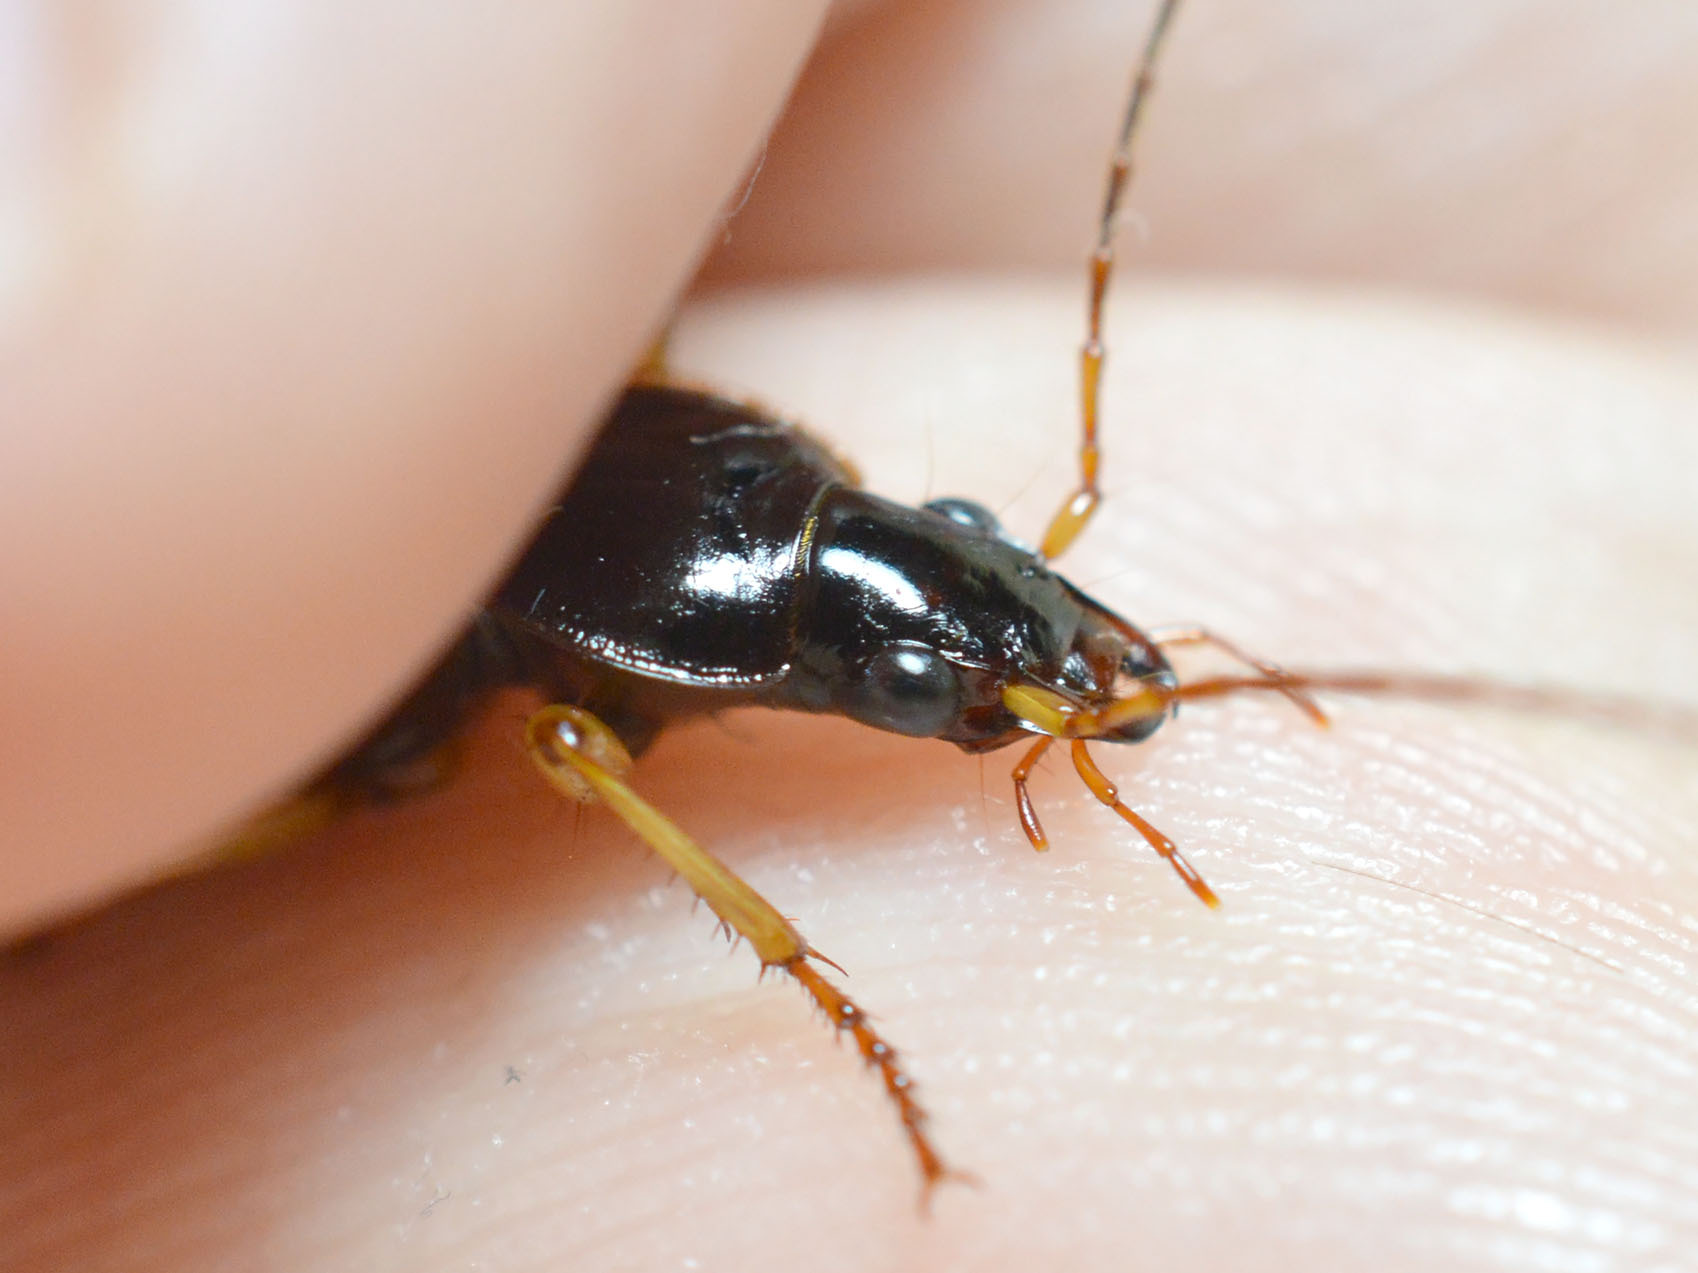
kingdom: Animalia
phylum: Arthropoda
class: Insecta
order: Coleoptera
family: Carabidae
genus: Dolichus
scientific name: Dolichus halensis
